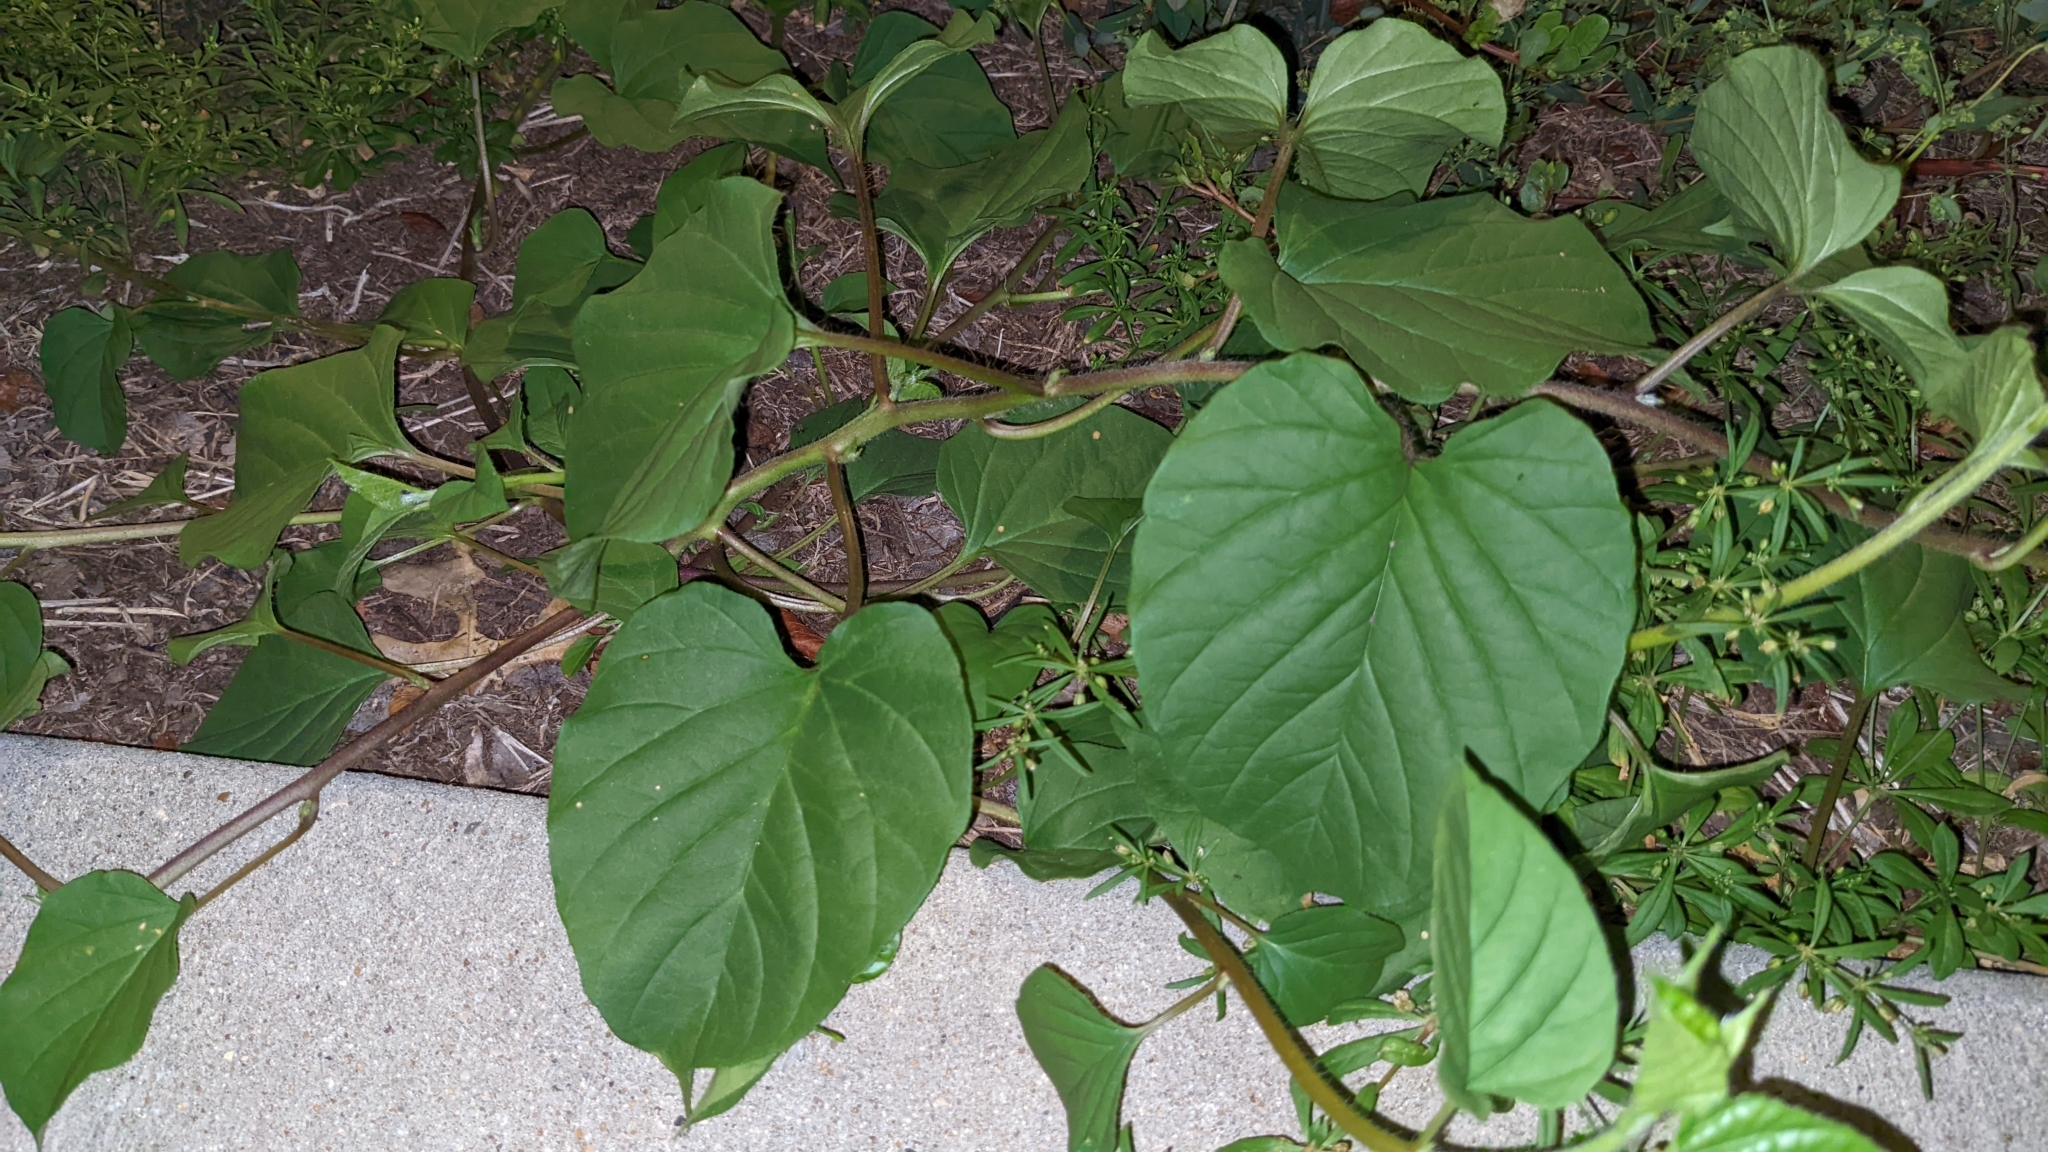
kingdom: Plantae
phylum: Tracheophyta
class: Magnoliopsida
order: Solanales
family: Convolvulaceae
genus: Jacquemontia
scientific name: Jacquemontia tamnifolia
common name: Hairy clustervine
